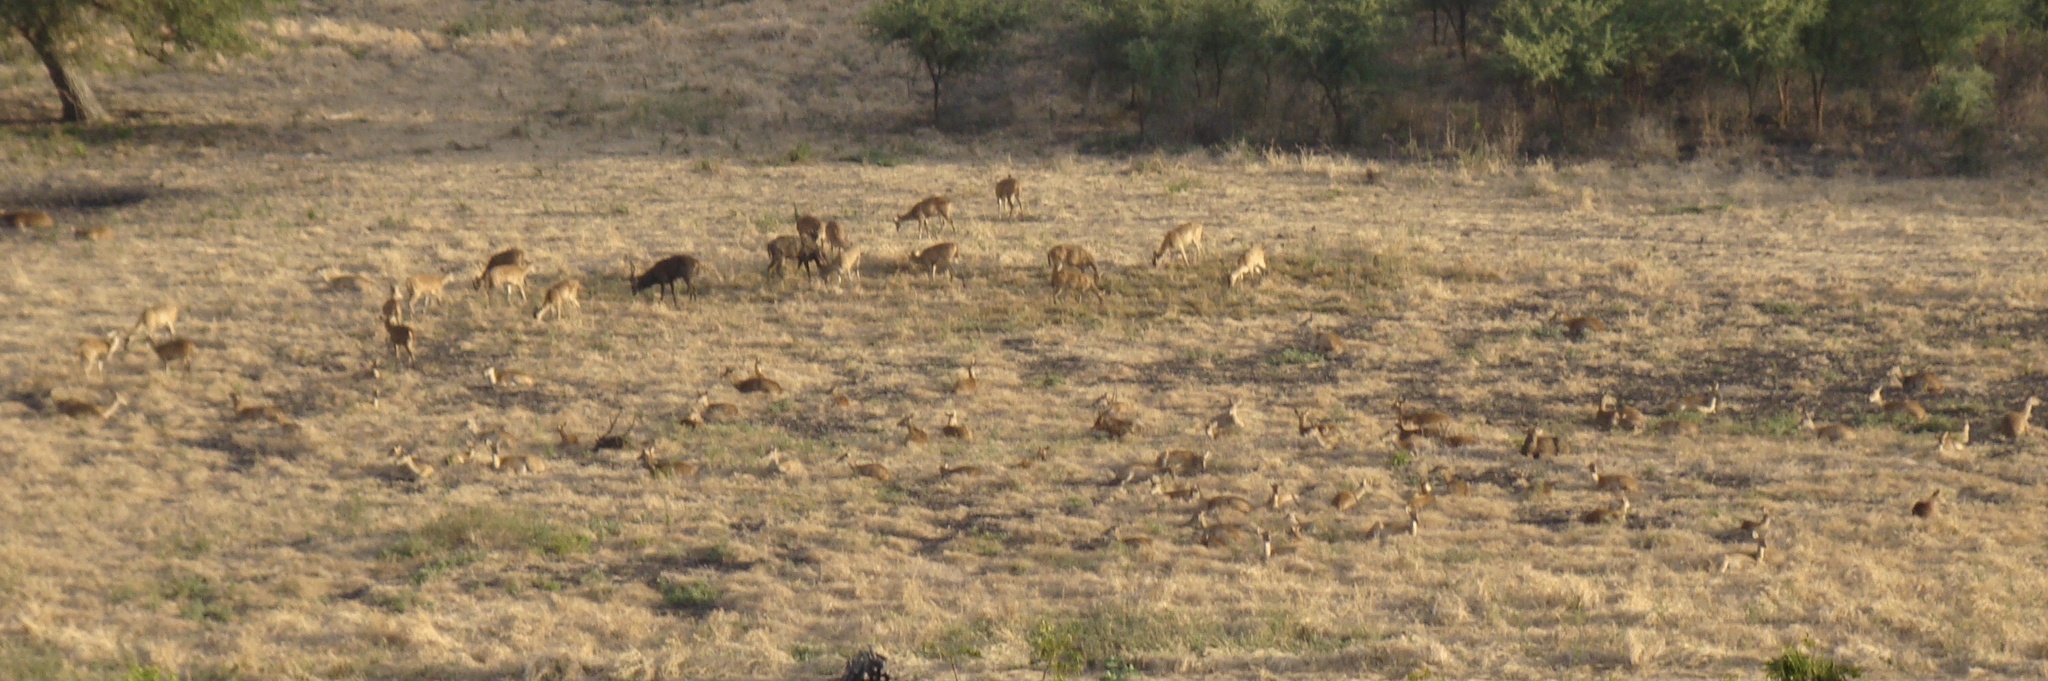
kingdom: Animalia
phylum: Chordata
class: Mammalia
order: Artiodactyla
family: Cervidae
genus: Rusa
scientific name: Rusa timorensis
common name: Javan rusa
